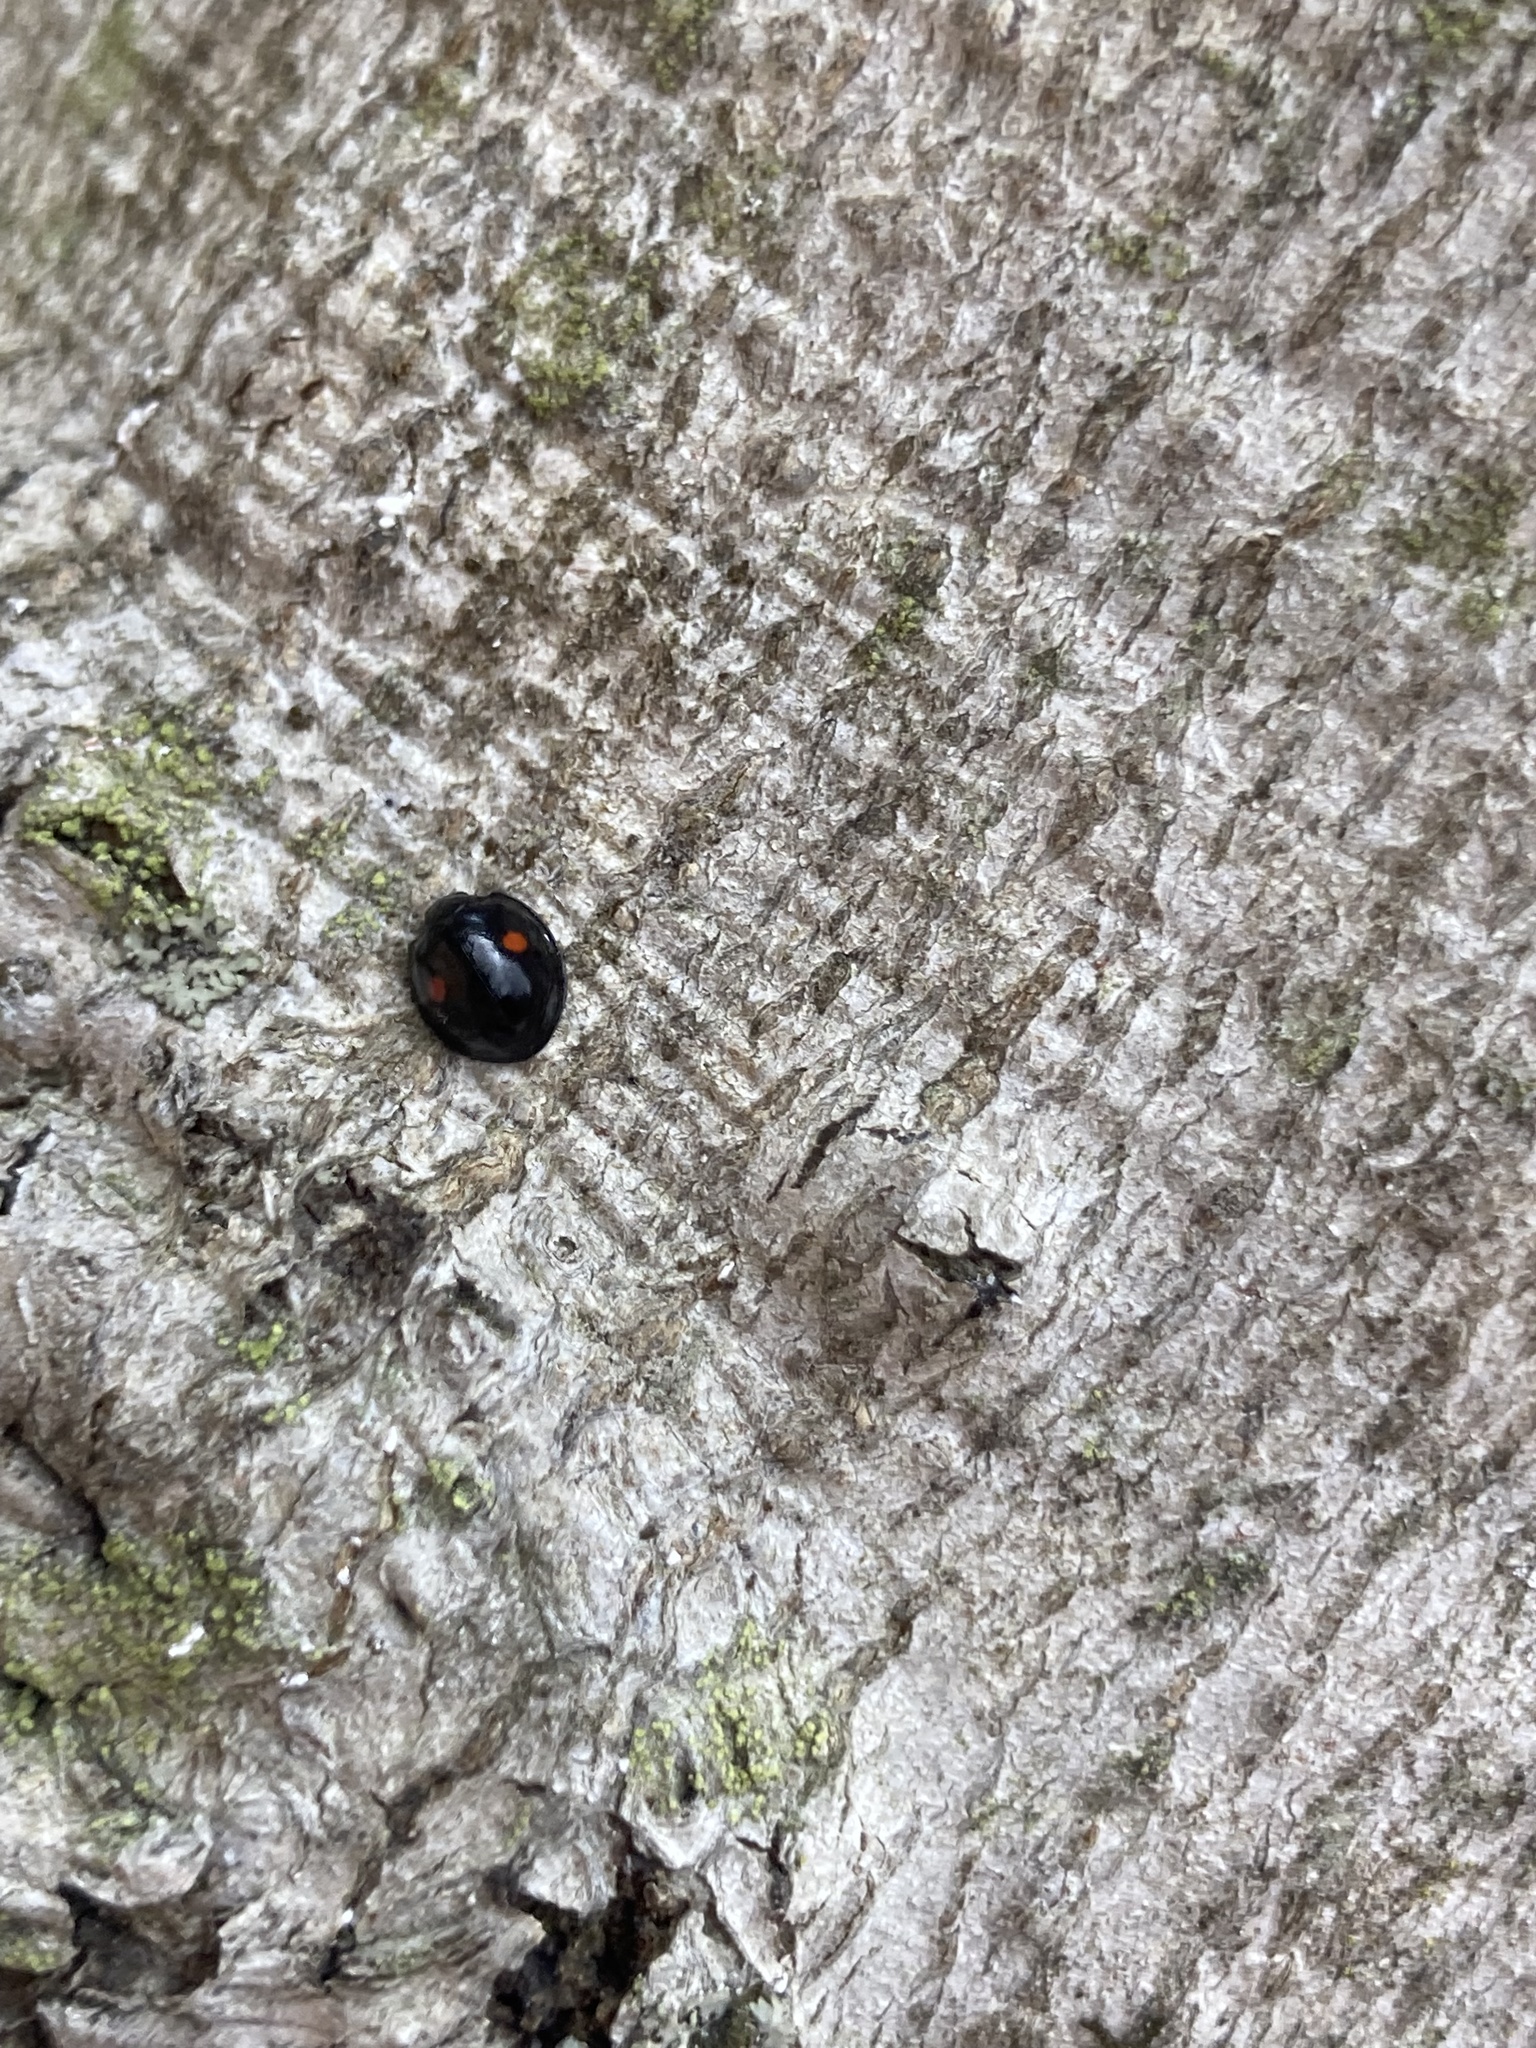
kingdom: Animalia
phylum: Arthropoda
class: Insecta
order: Coleoptera
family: Coccinellidae
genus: Chilocorus
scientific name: Chilocorus stigma
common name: Twicestabbed lady beetle
